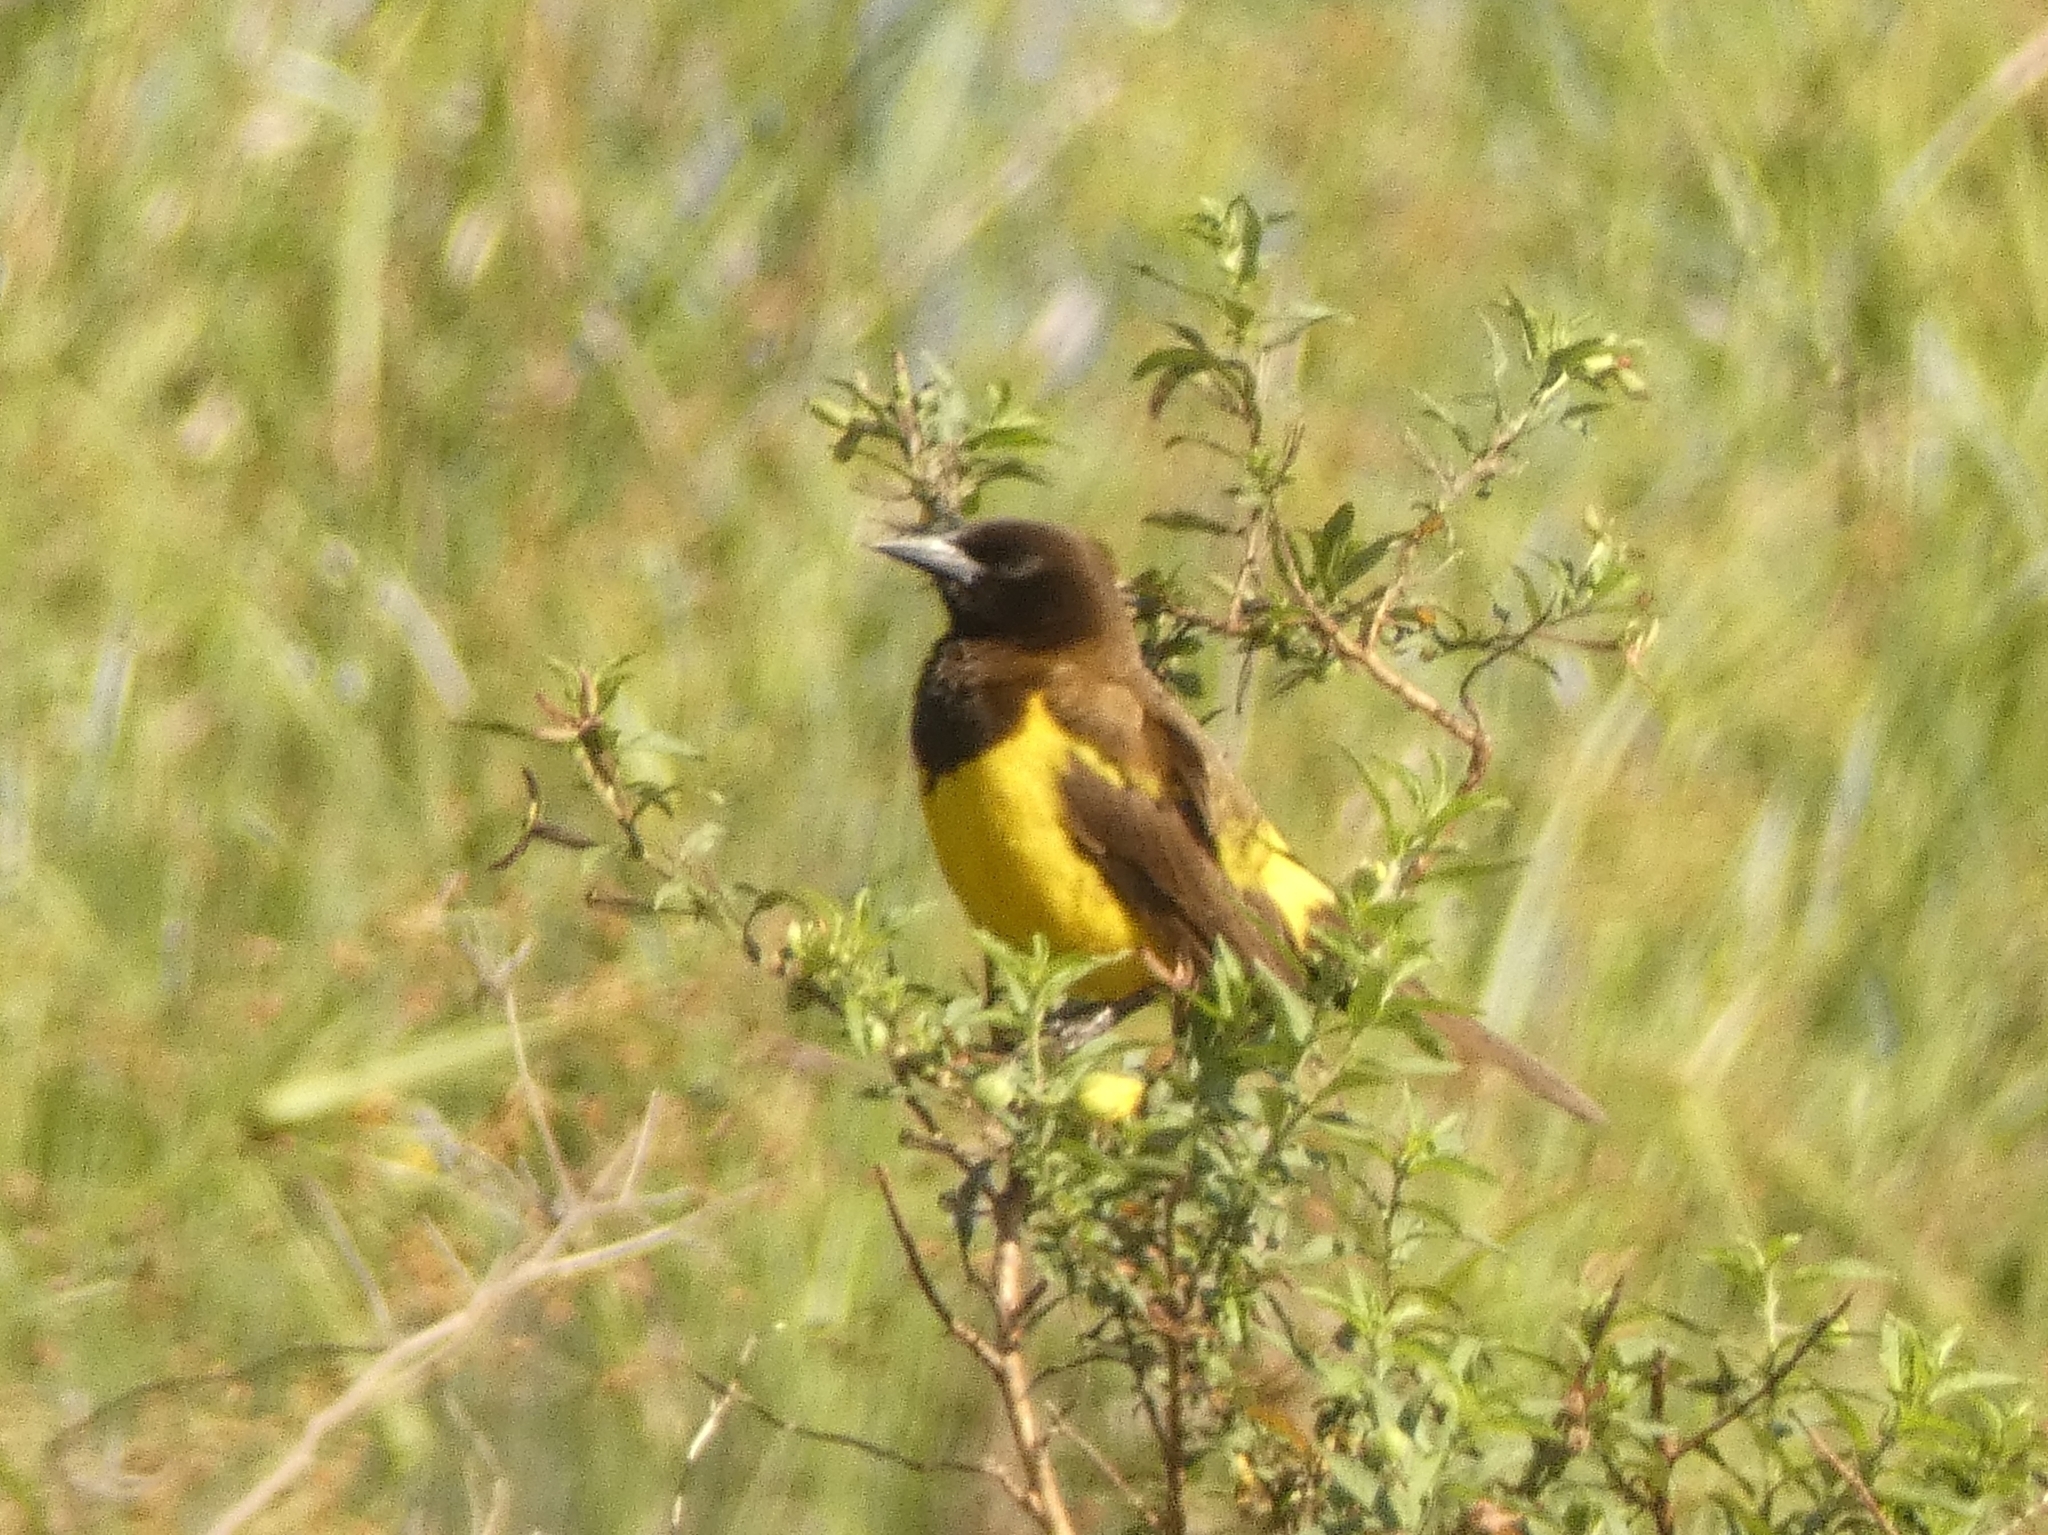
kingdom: Animalia
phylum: Chordata
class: Aves
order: Passeriformes
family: Icteridae
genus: Pseudoleistes
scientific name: Pseudoleistes guirahuro
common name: Yellow-rumped marshbird
